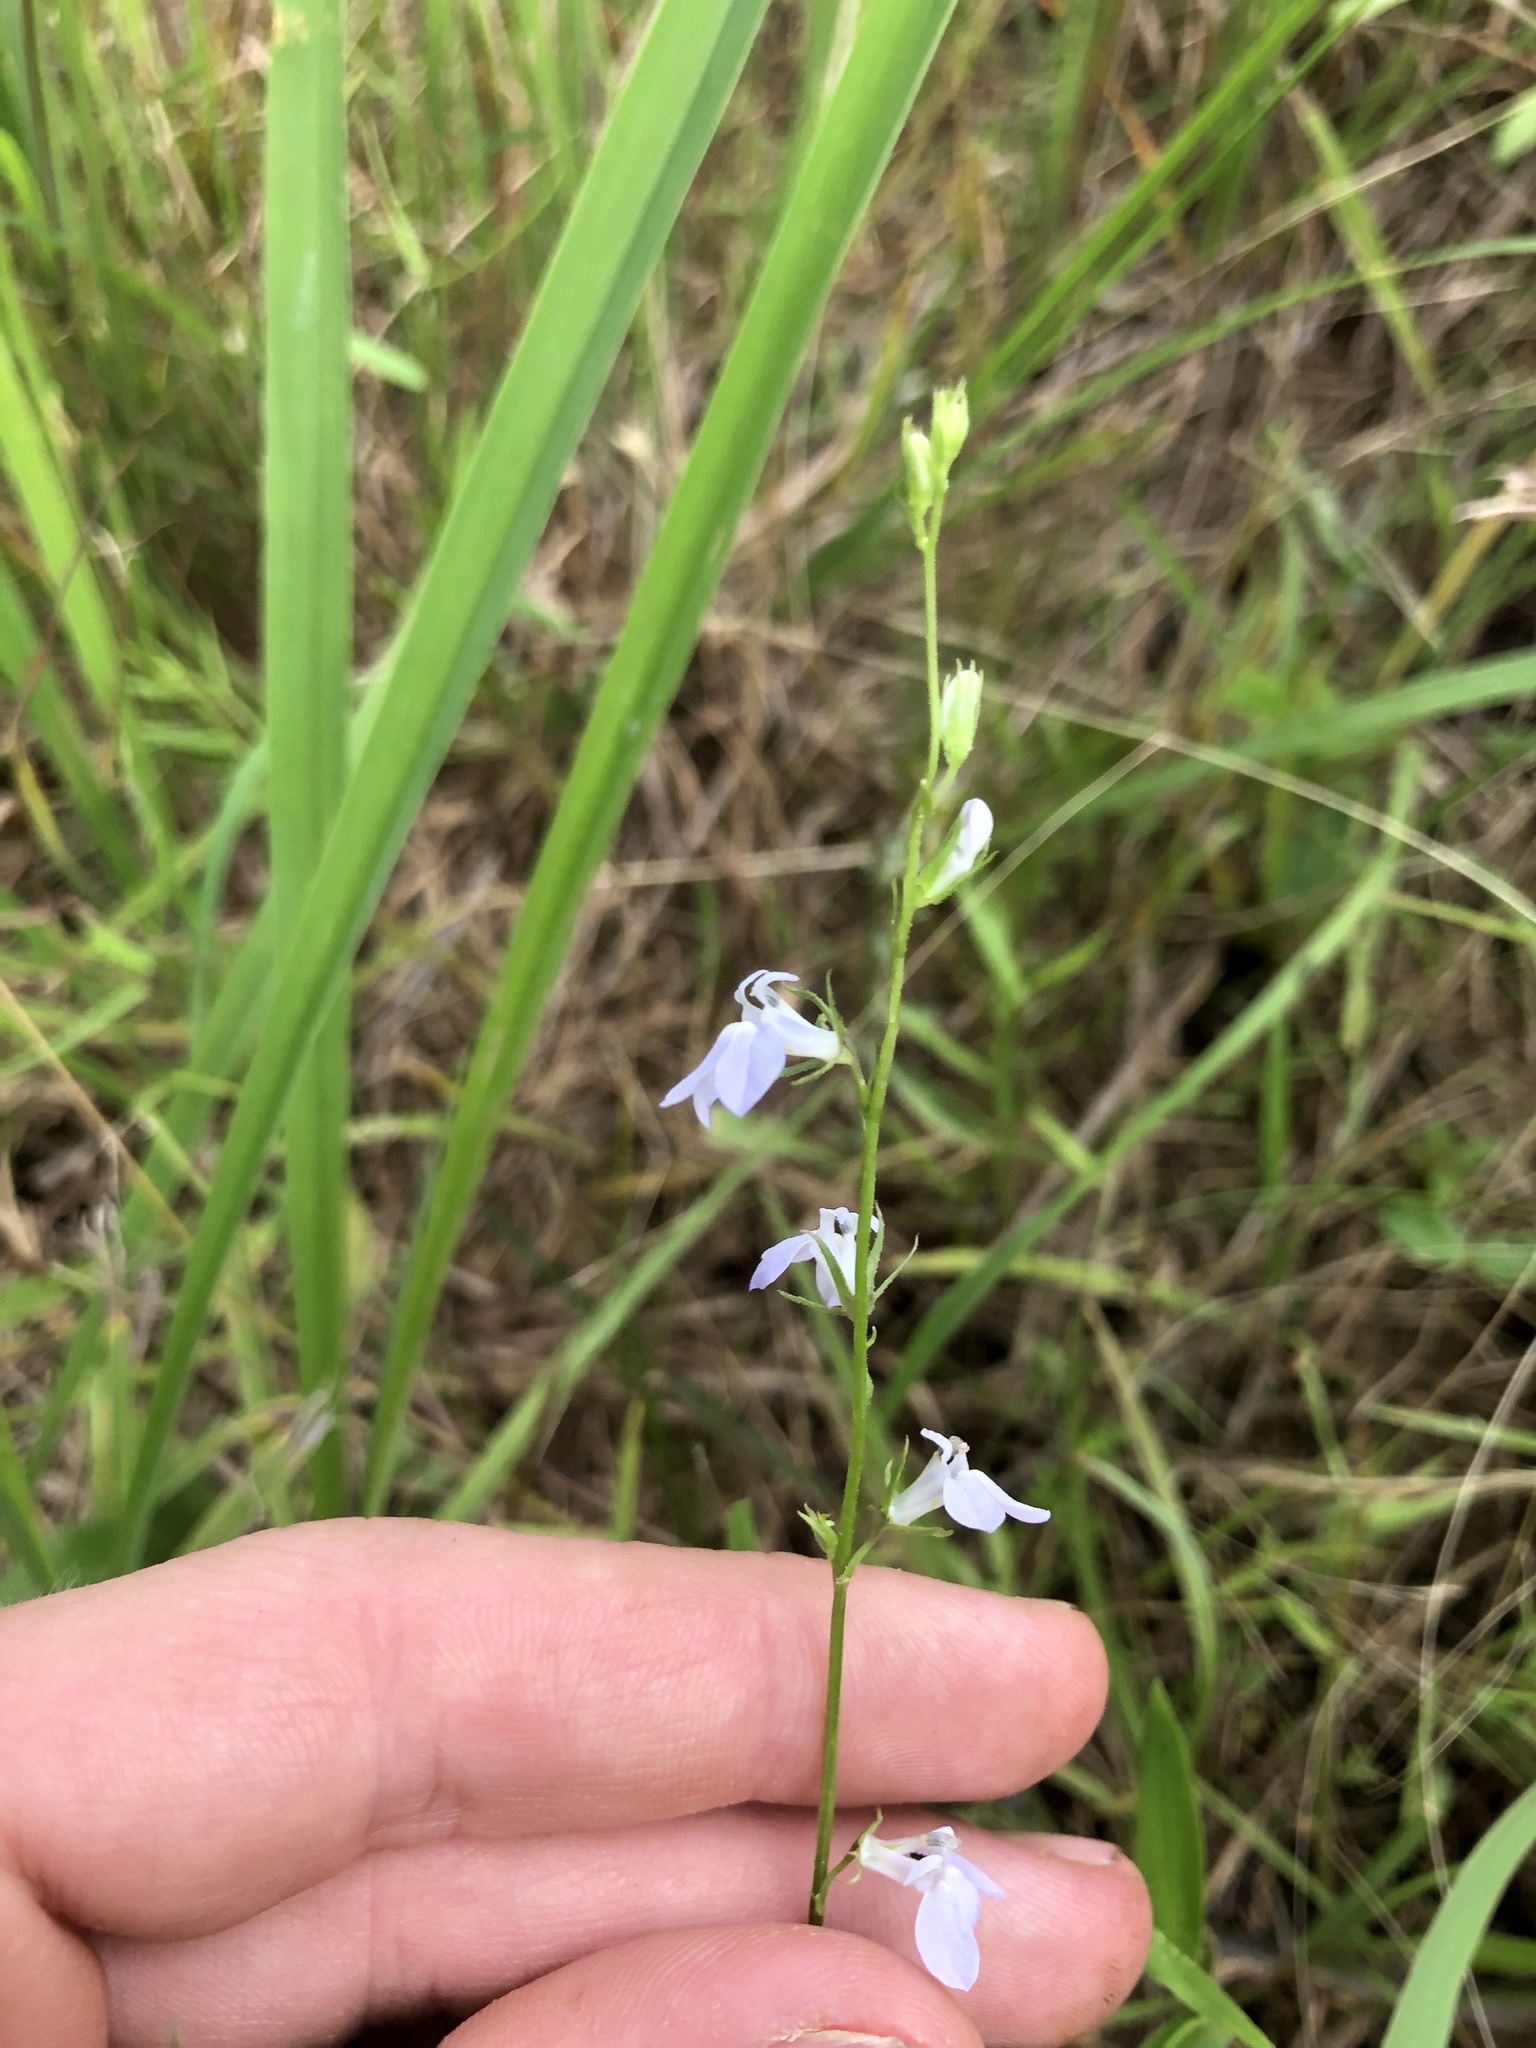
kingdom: Plantae
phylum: Tracheophyta
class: Magnoliopsida
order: Asterales
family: Campanulaceae
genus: Lobelia
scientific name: Lobelia appendiculata
